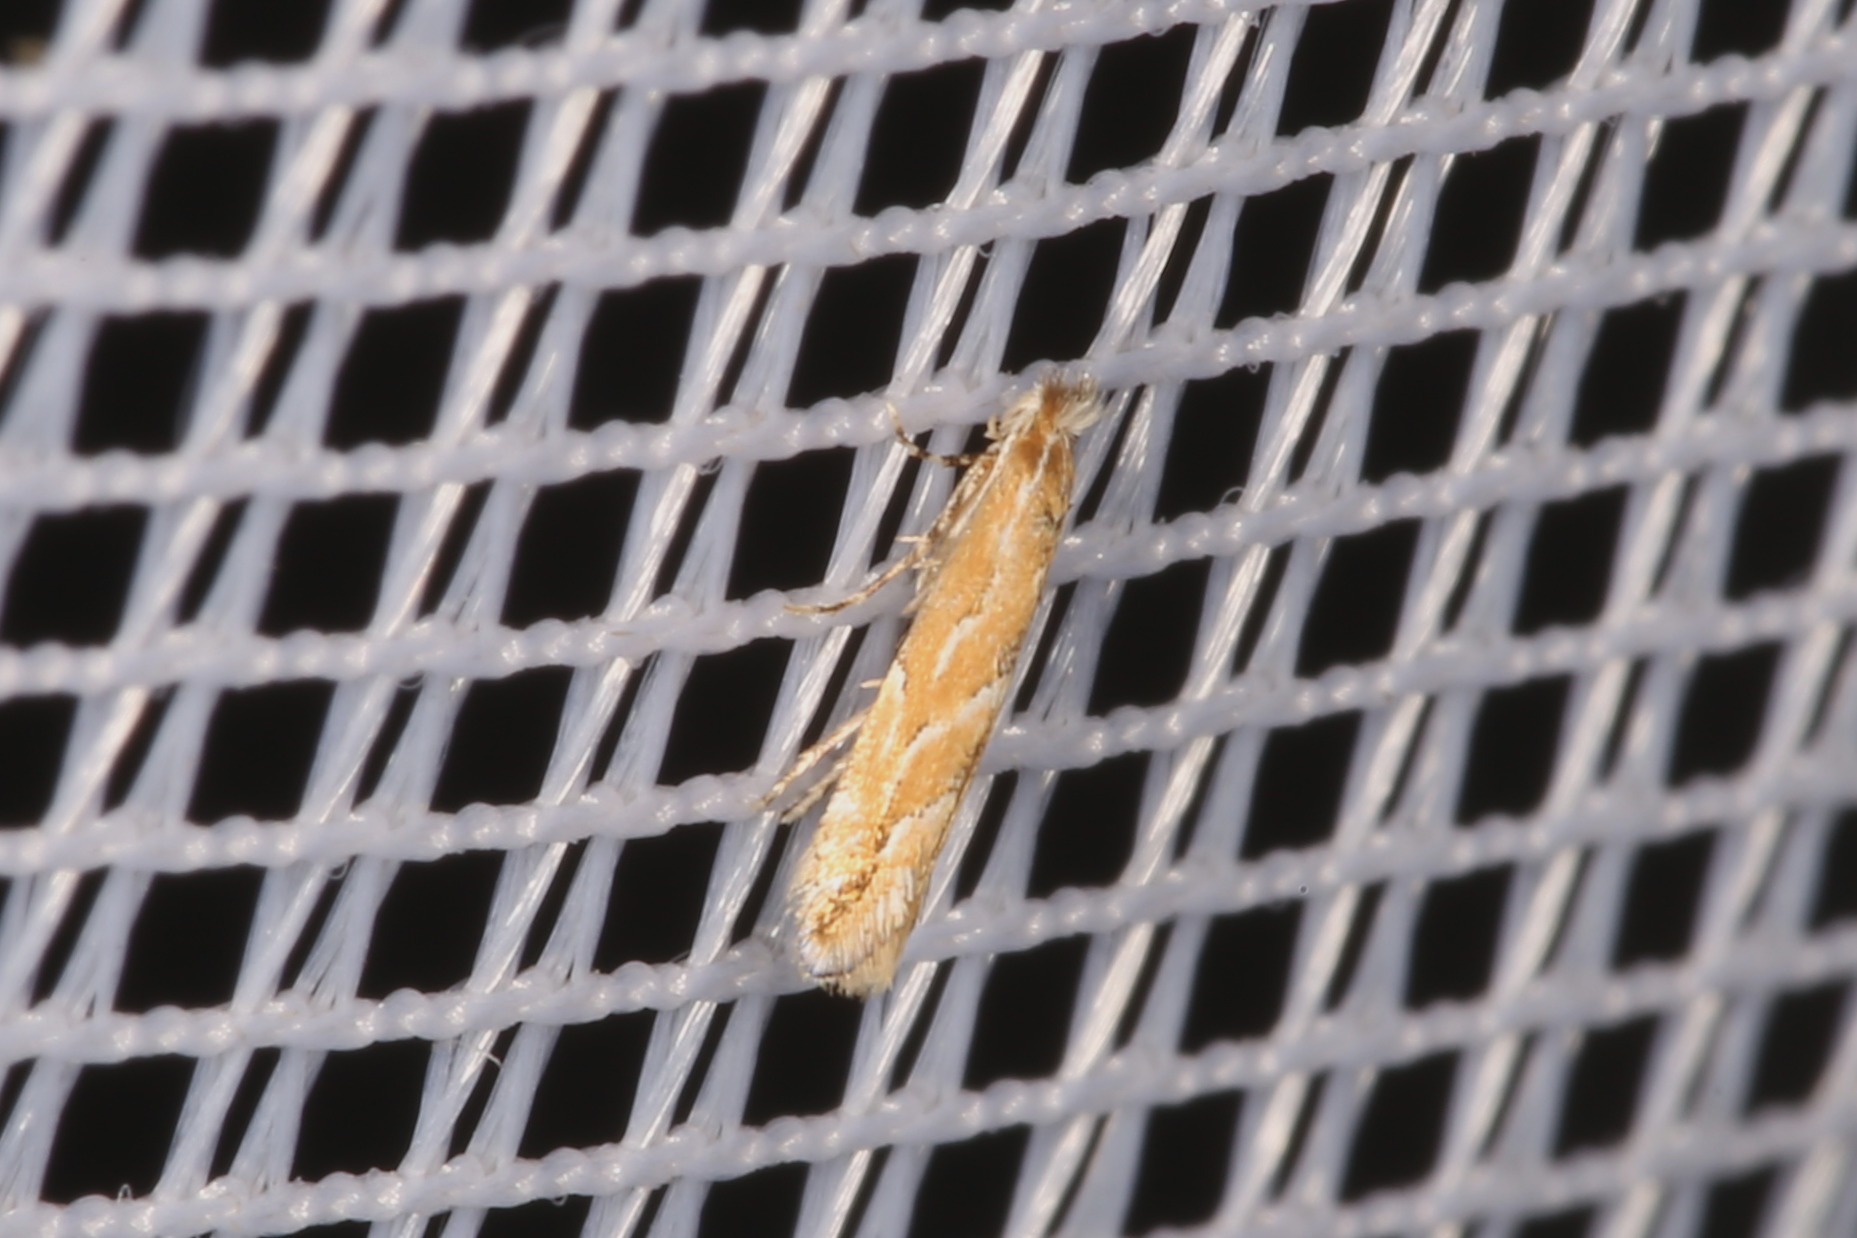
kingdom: Animalia
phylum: Arthropoda
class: Insecta
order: Lepidoptera
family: Gracillariidae
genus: Phyllonorycter
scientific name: Phyllonorycter issikii
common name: Linden midget
